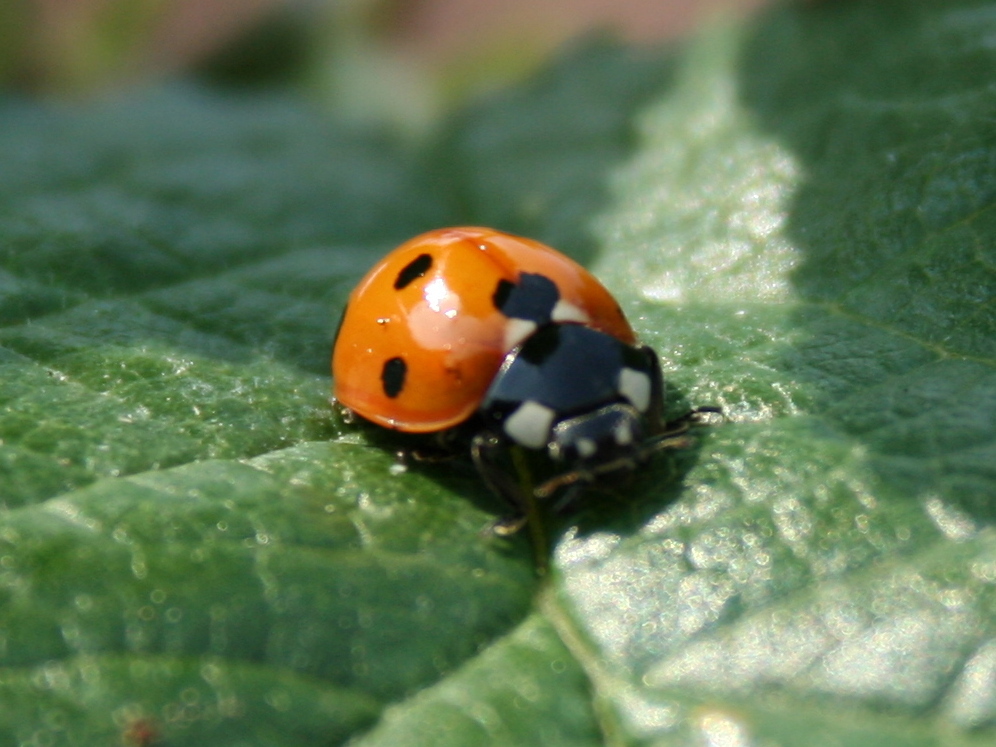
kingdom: Animalia
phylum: Arthropoda
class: Insecta
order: Coleoptera
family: Coccinellidae
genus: Coccinella
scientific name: Coccinella septempunctata
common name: Sevenspotted lady beetle
